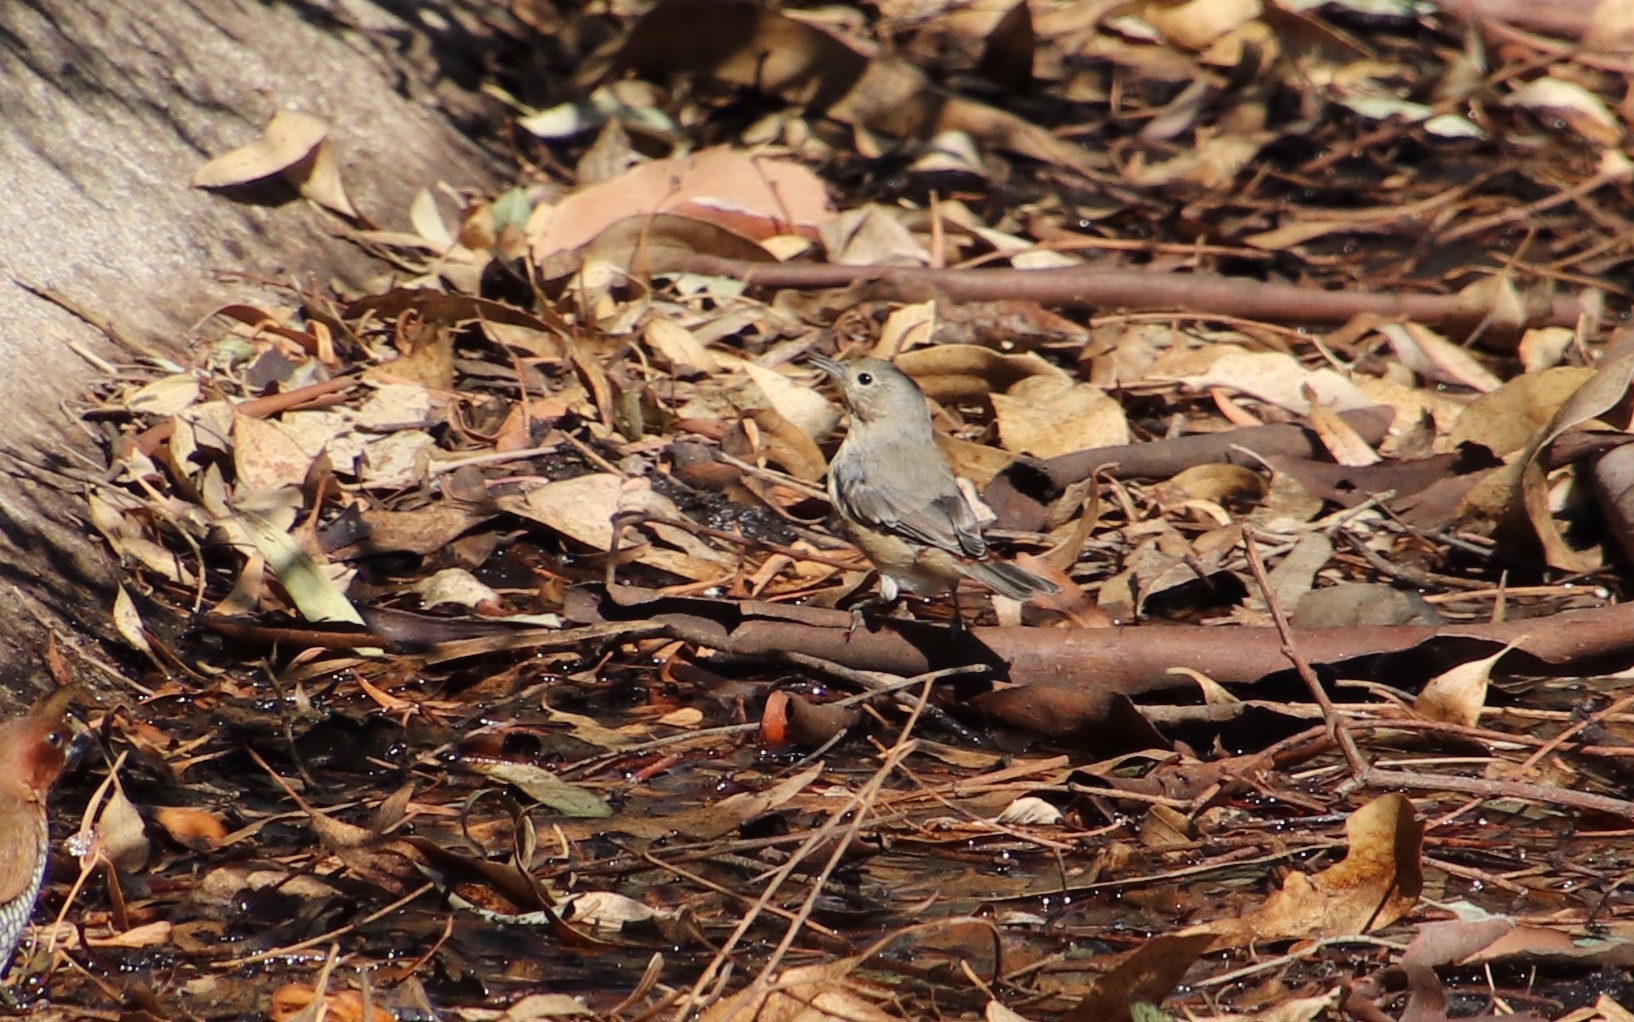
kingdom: Animalia
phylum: Chordata
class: Aves
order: Passeriformes
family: Parulidae
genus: Leiothlypis
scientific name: Leiothlypis luciae
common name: Lucy's warbler
